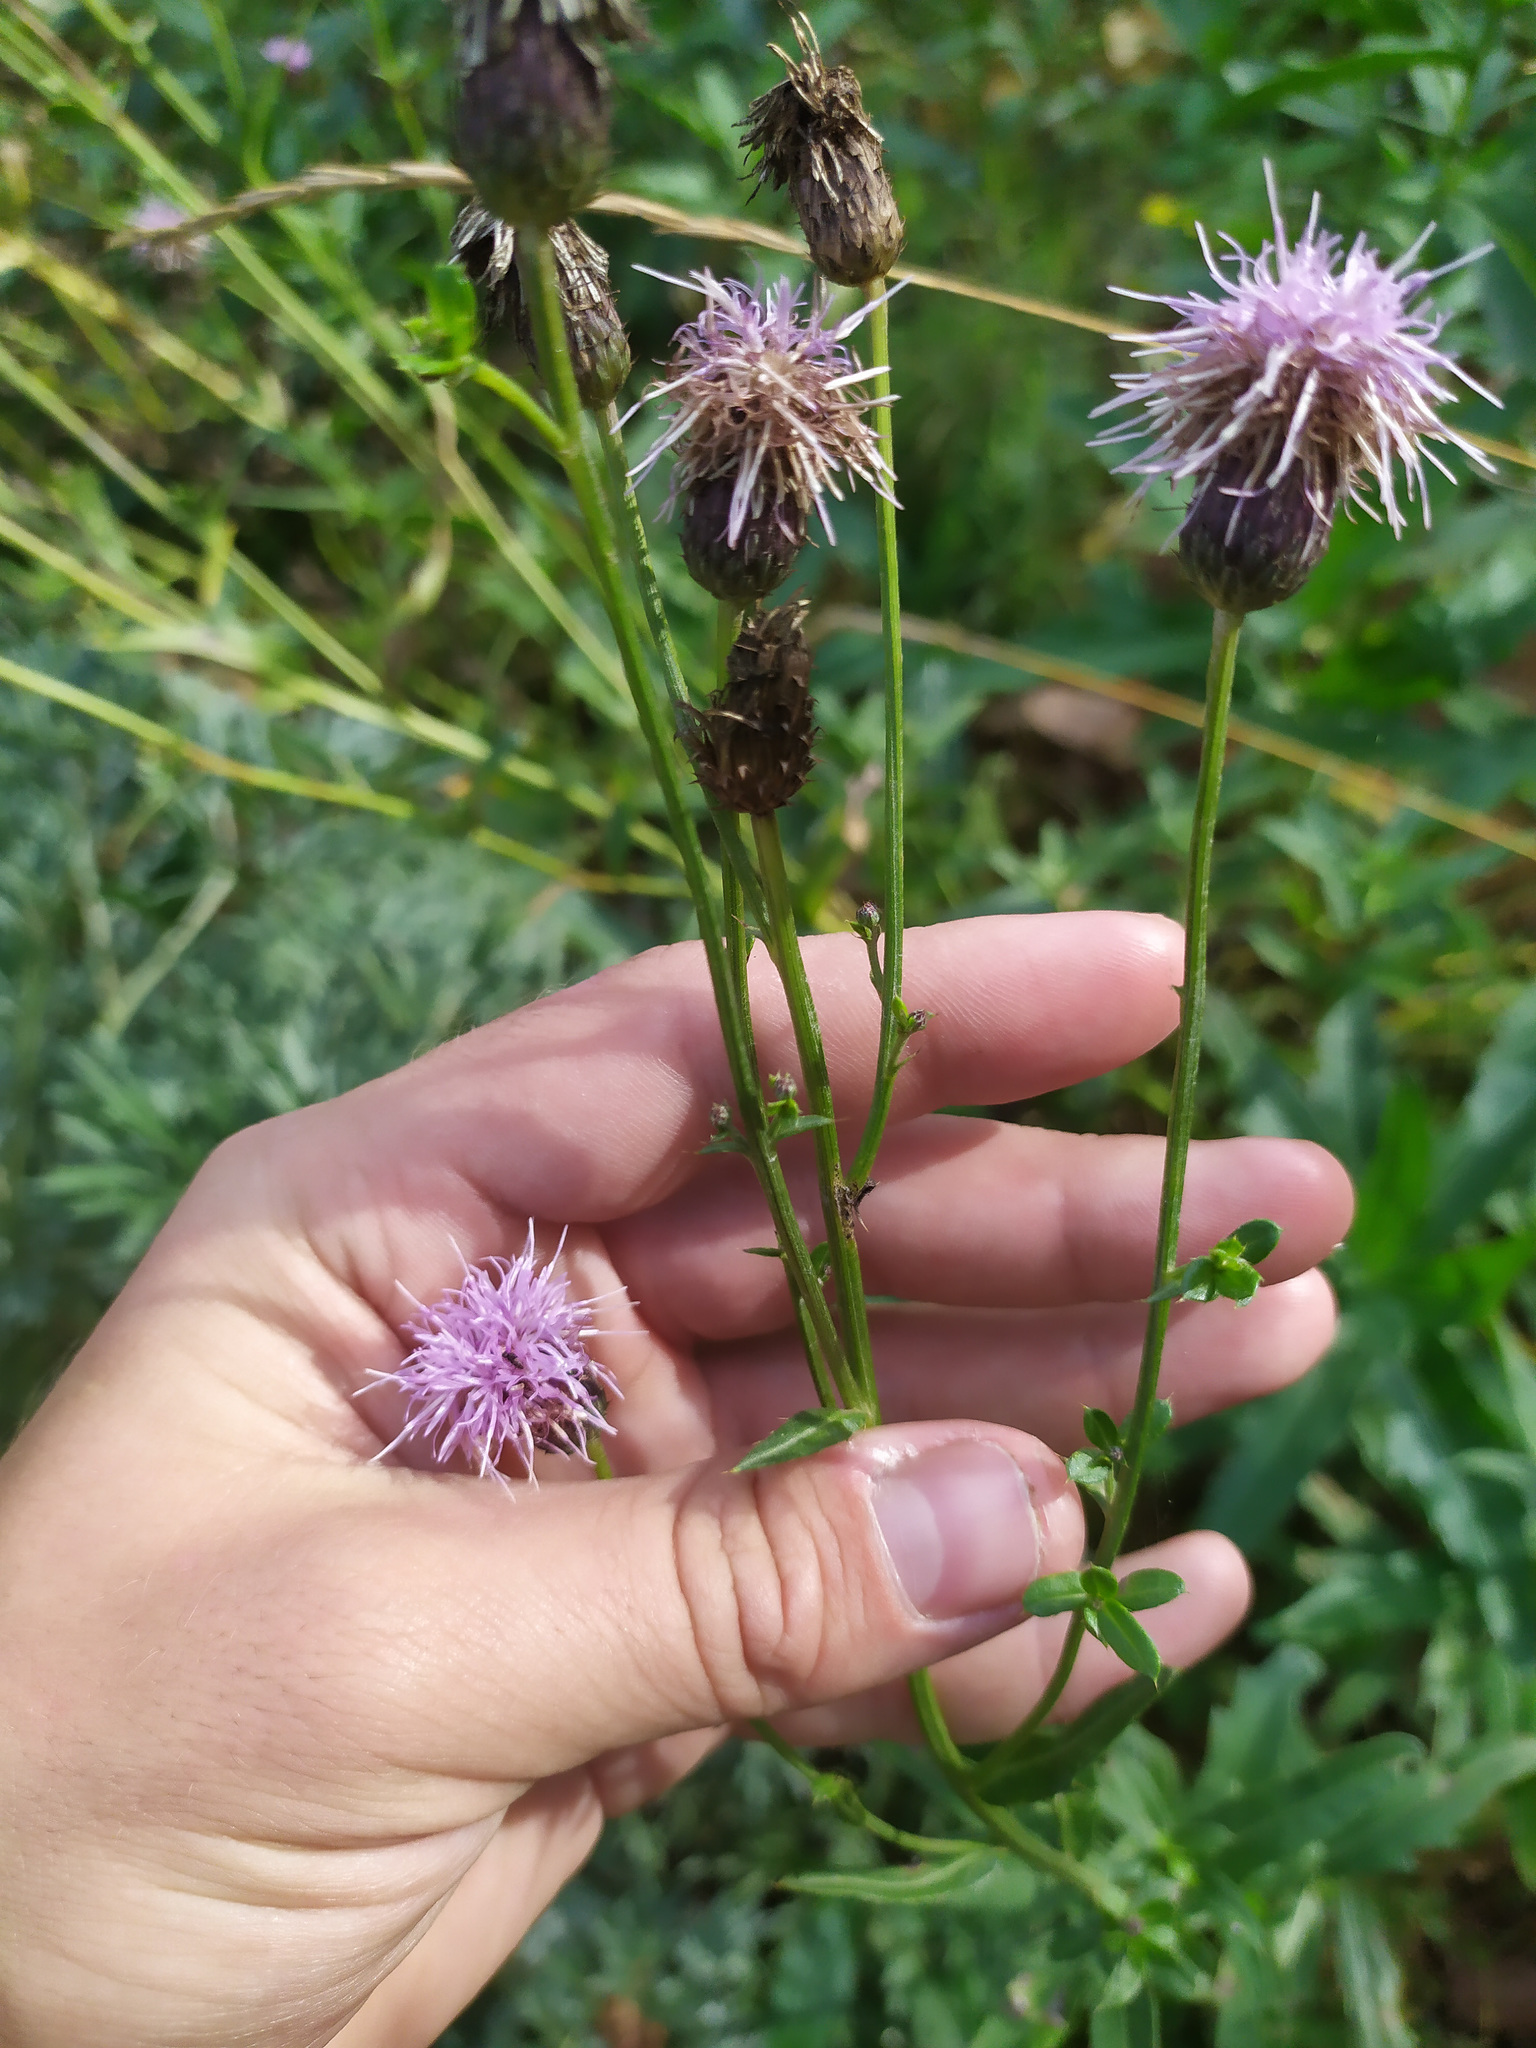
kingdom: Plantae
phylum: Tracheophyta
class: Magnoliopsida
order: Asterales
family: Asteraceae
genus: Cirsium
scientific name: Cirsium arvense
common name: Creeping thistle
